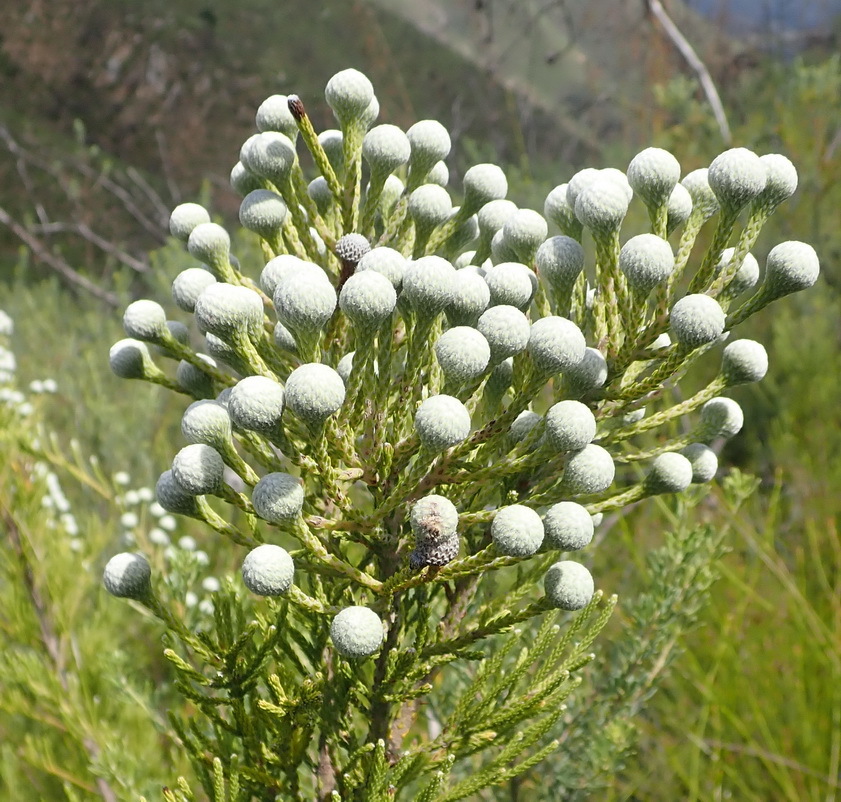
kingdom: Plantae
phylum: Tracheophyta
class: Magnoliopsida
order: Bruniales
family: Bruniaceae
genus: Brunia
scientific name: Brunia noduliflora
